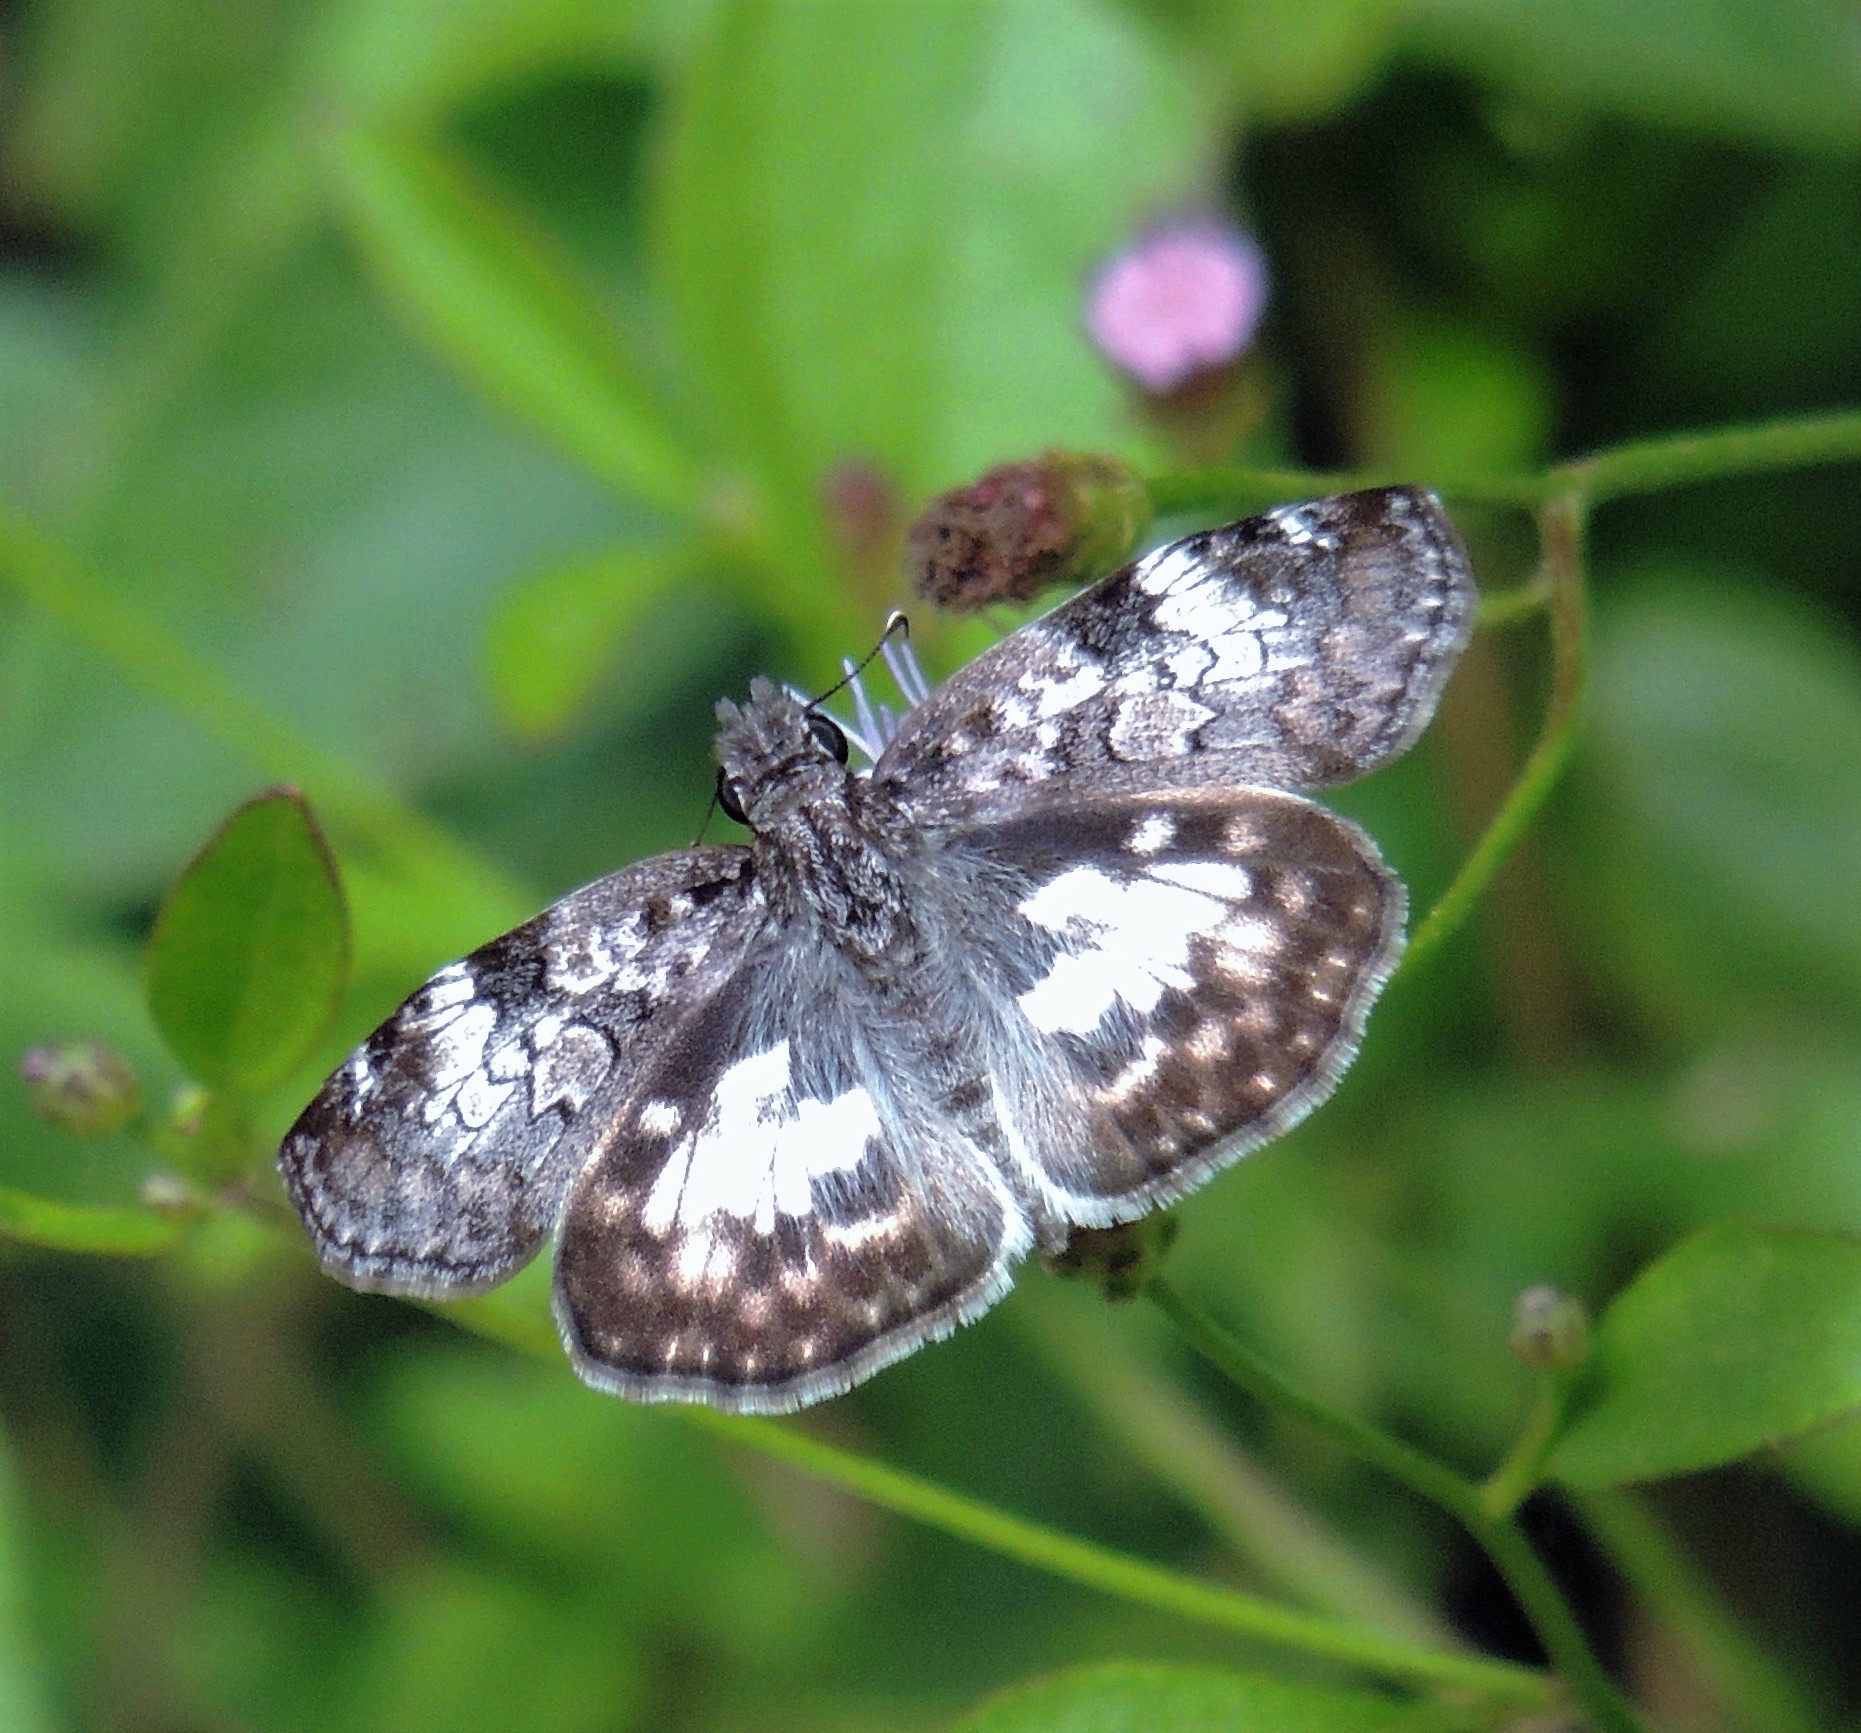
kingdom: Animalia
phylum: Arthropoda
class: Insecta
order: Lepidoptera
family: Hesperiidae
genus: Chiomara
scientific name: Chiomara asychis
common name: White-patterned skipper
